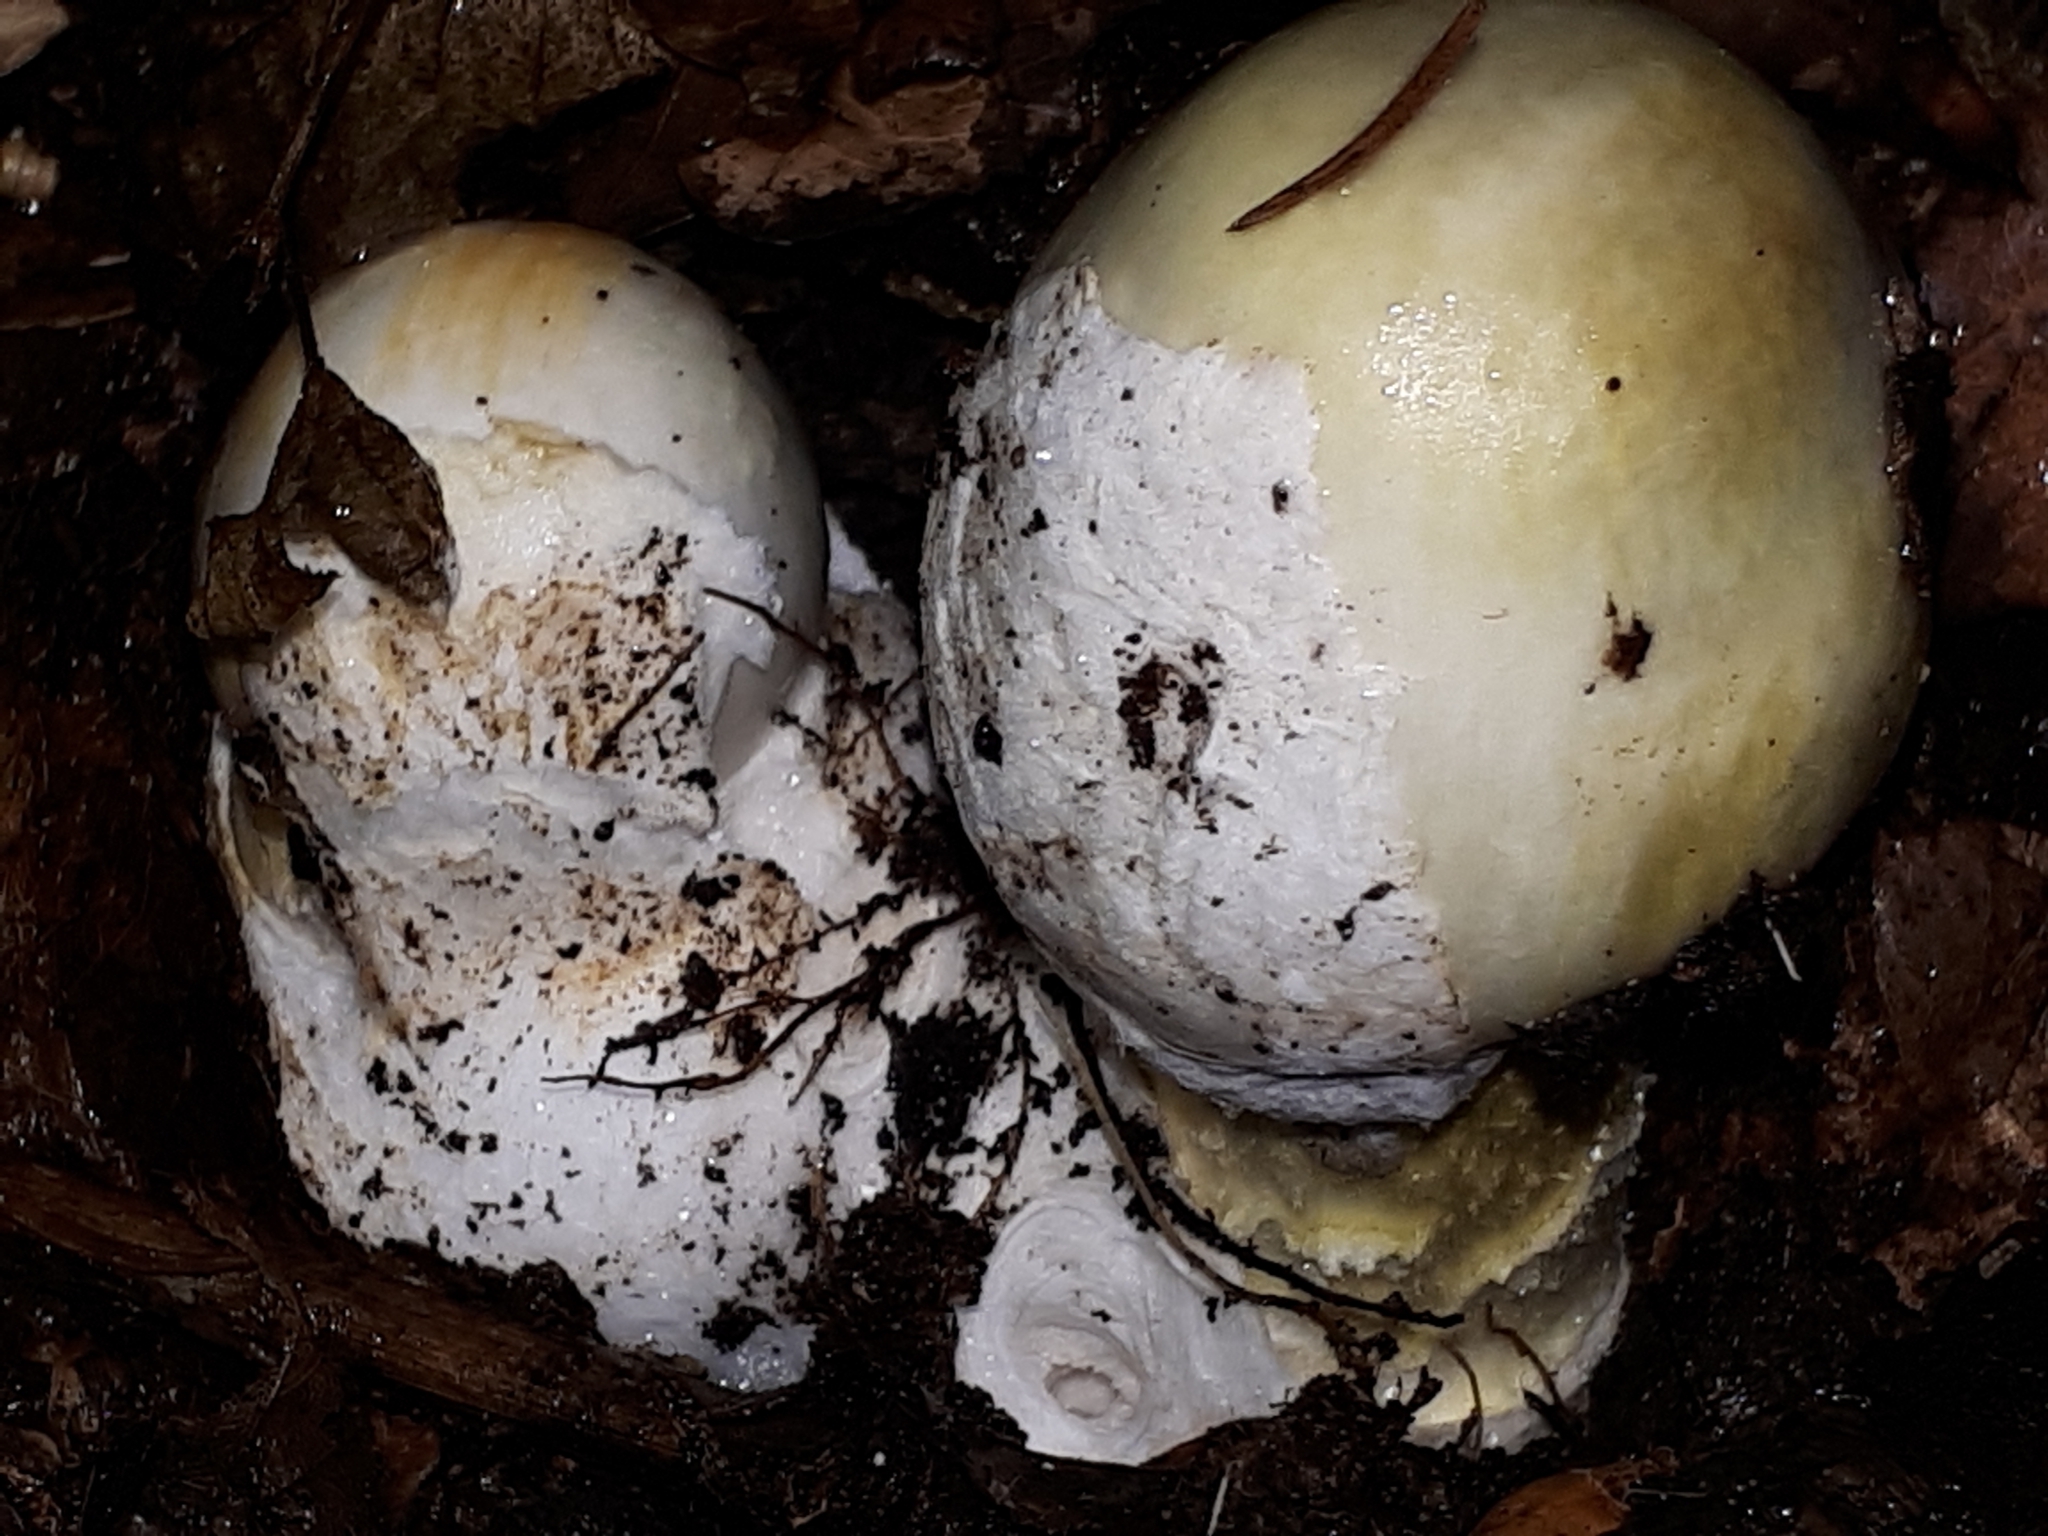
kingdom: Fungi
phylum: Basidiomycota
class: Agaricomycetes
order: Agaricales
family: Amanitaceae
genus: Amanita
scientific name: Amanita phalloides
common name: Death cap
